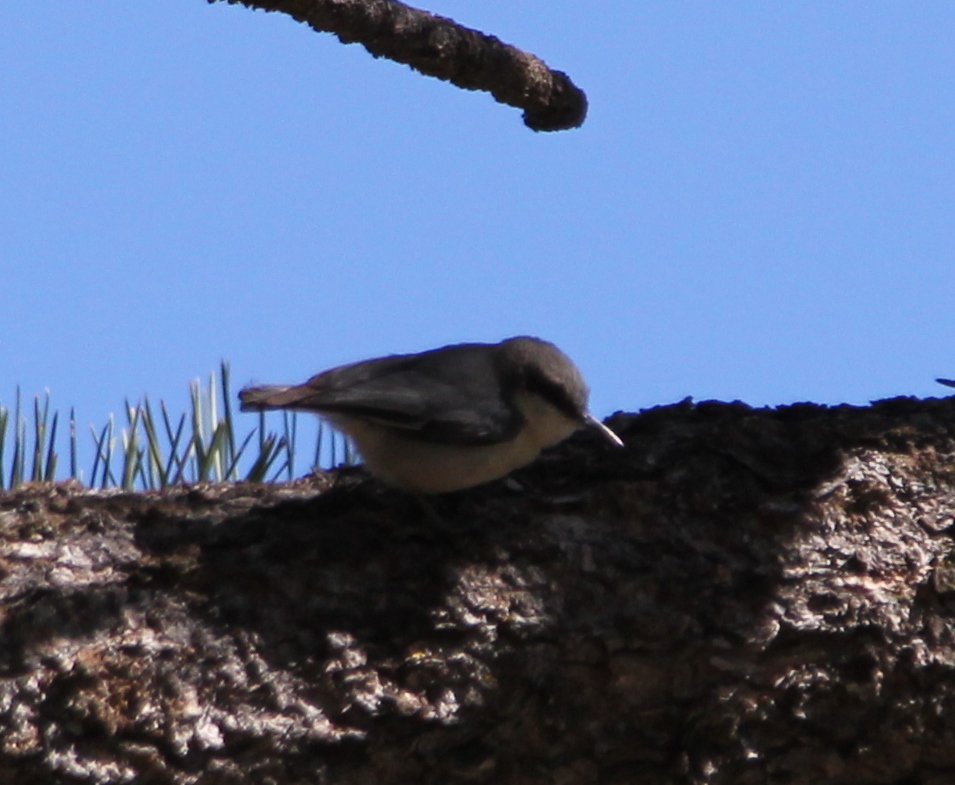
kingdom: Animalia
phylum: Chordata
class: Aves
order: Passeriformes
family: Sittidae
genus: Sitta
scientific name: Sitta pygmaea
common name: Pygmy nuthatch
